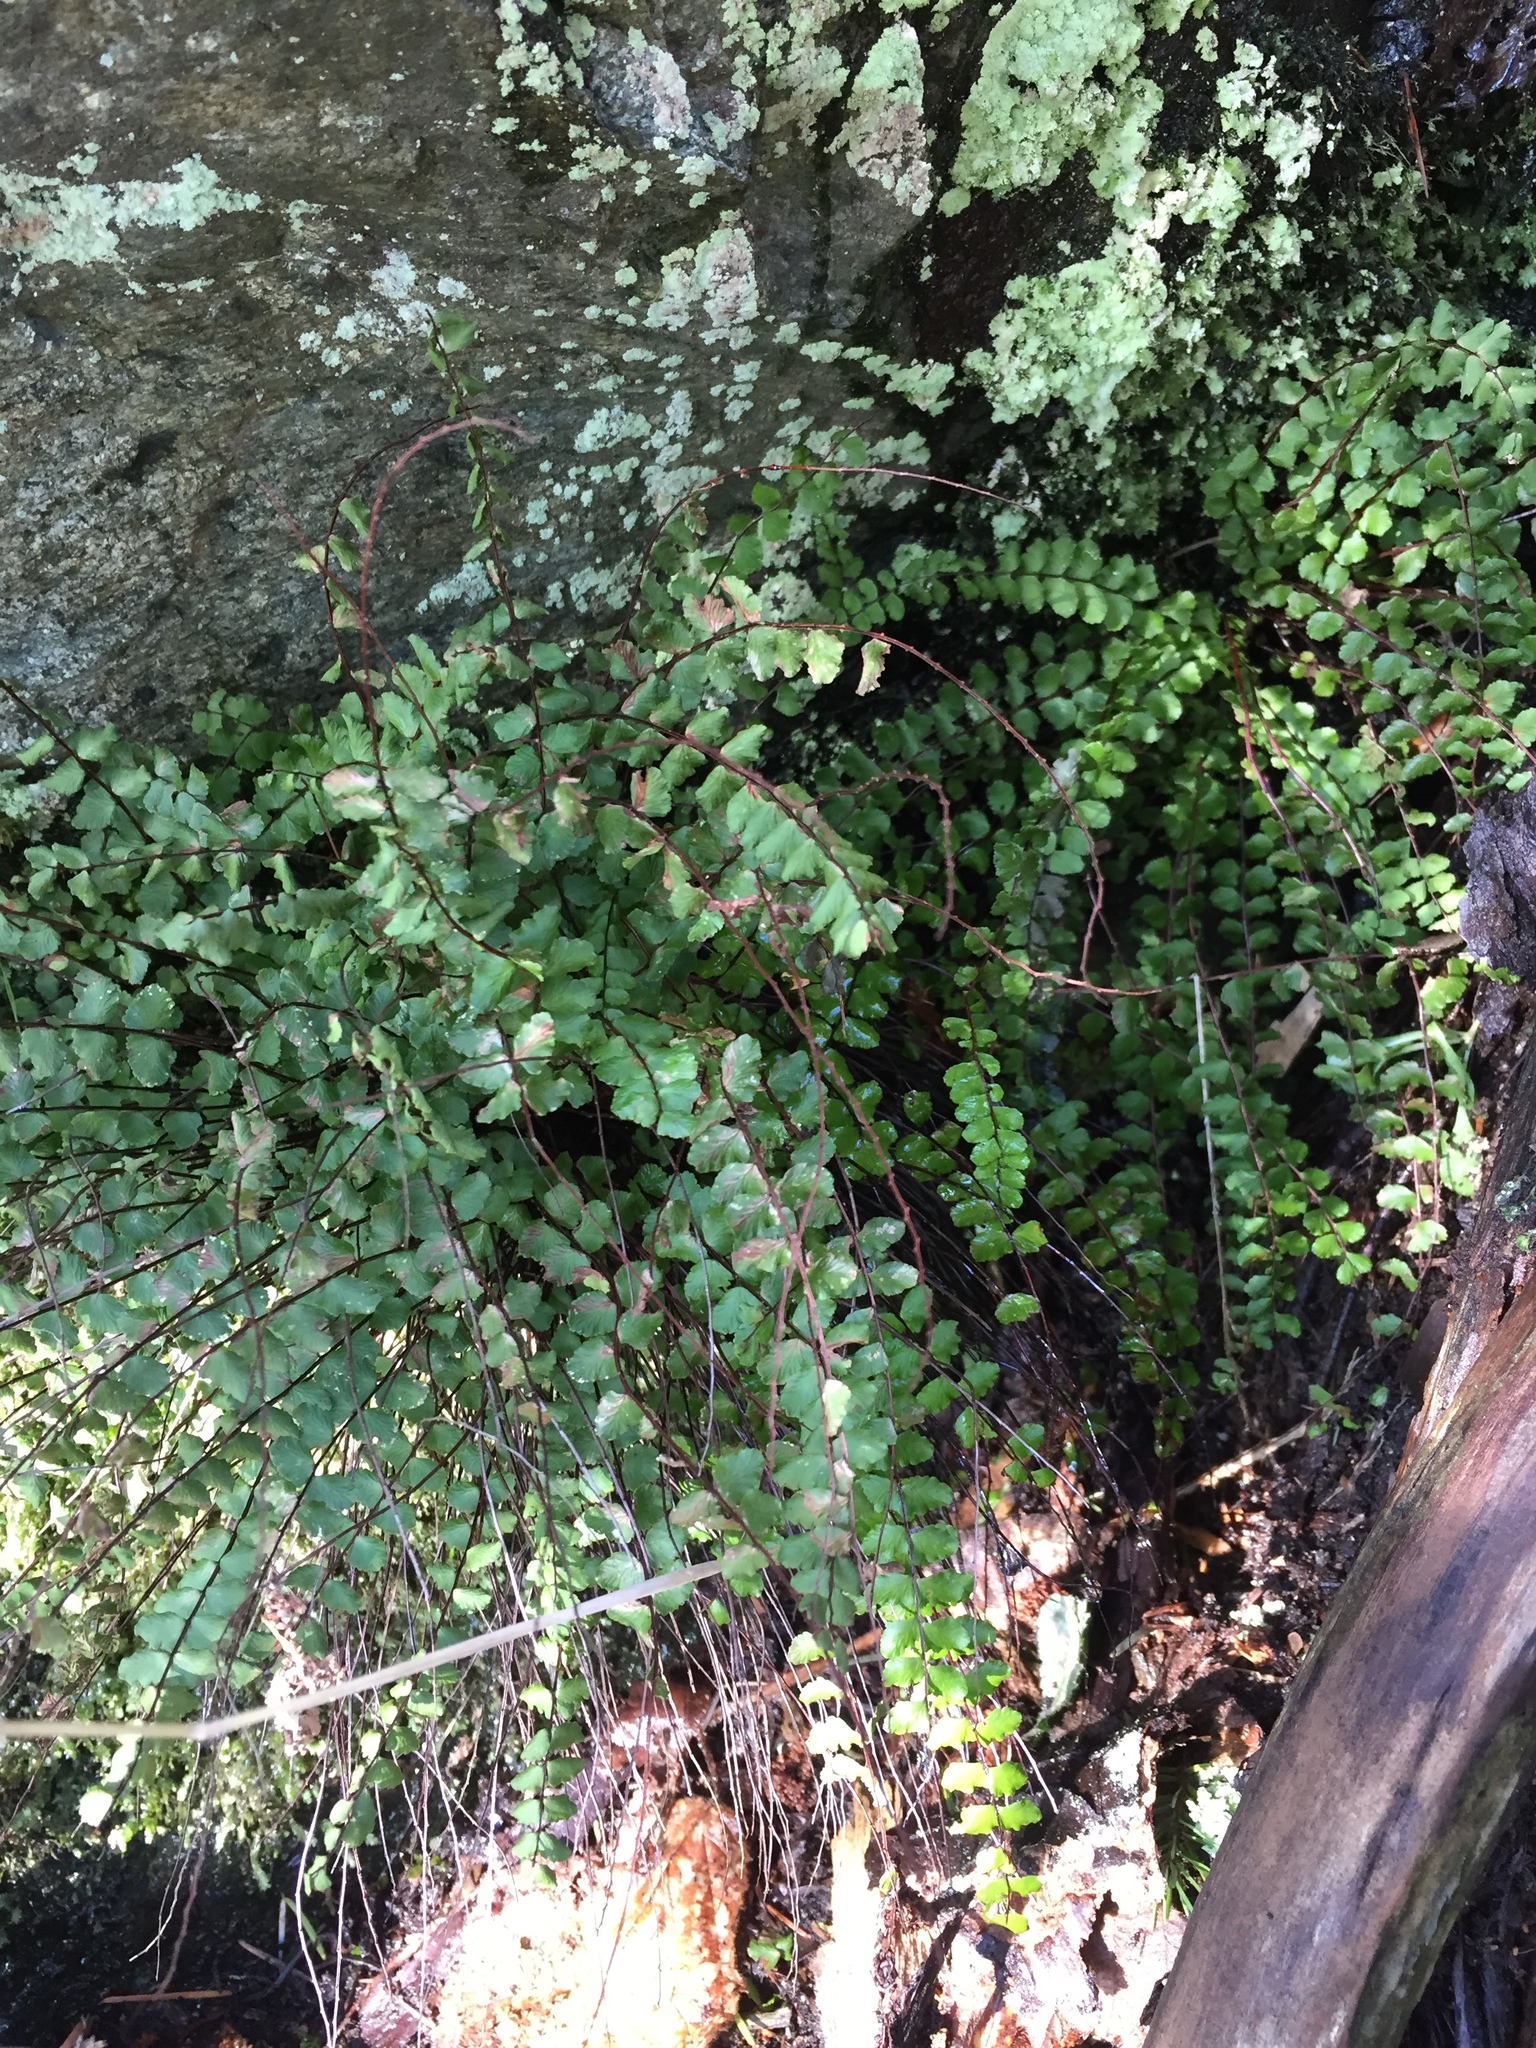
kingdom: Plantae
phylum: Tracheophyta
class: Polypodiopsida
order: Polypodiales
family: Aspleniaceae
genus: Asplenium
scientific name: Asplenium trichomanes
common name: Maidenhair spleenwort
